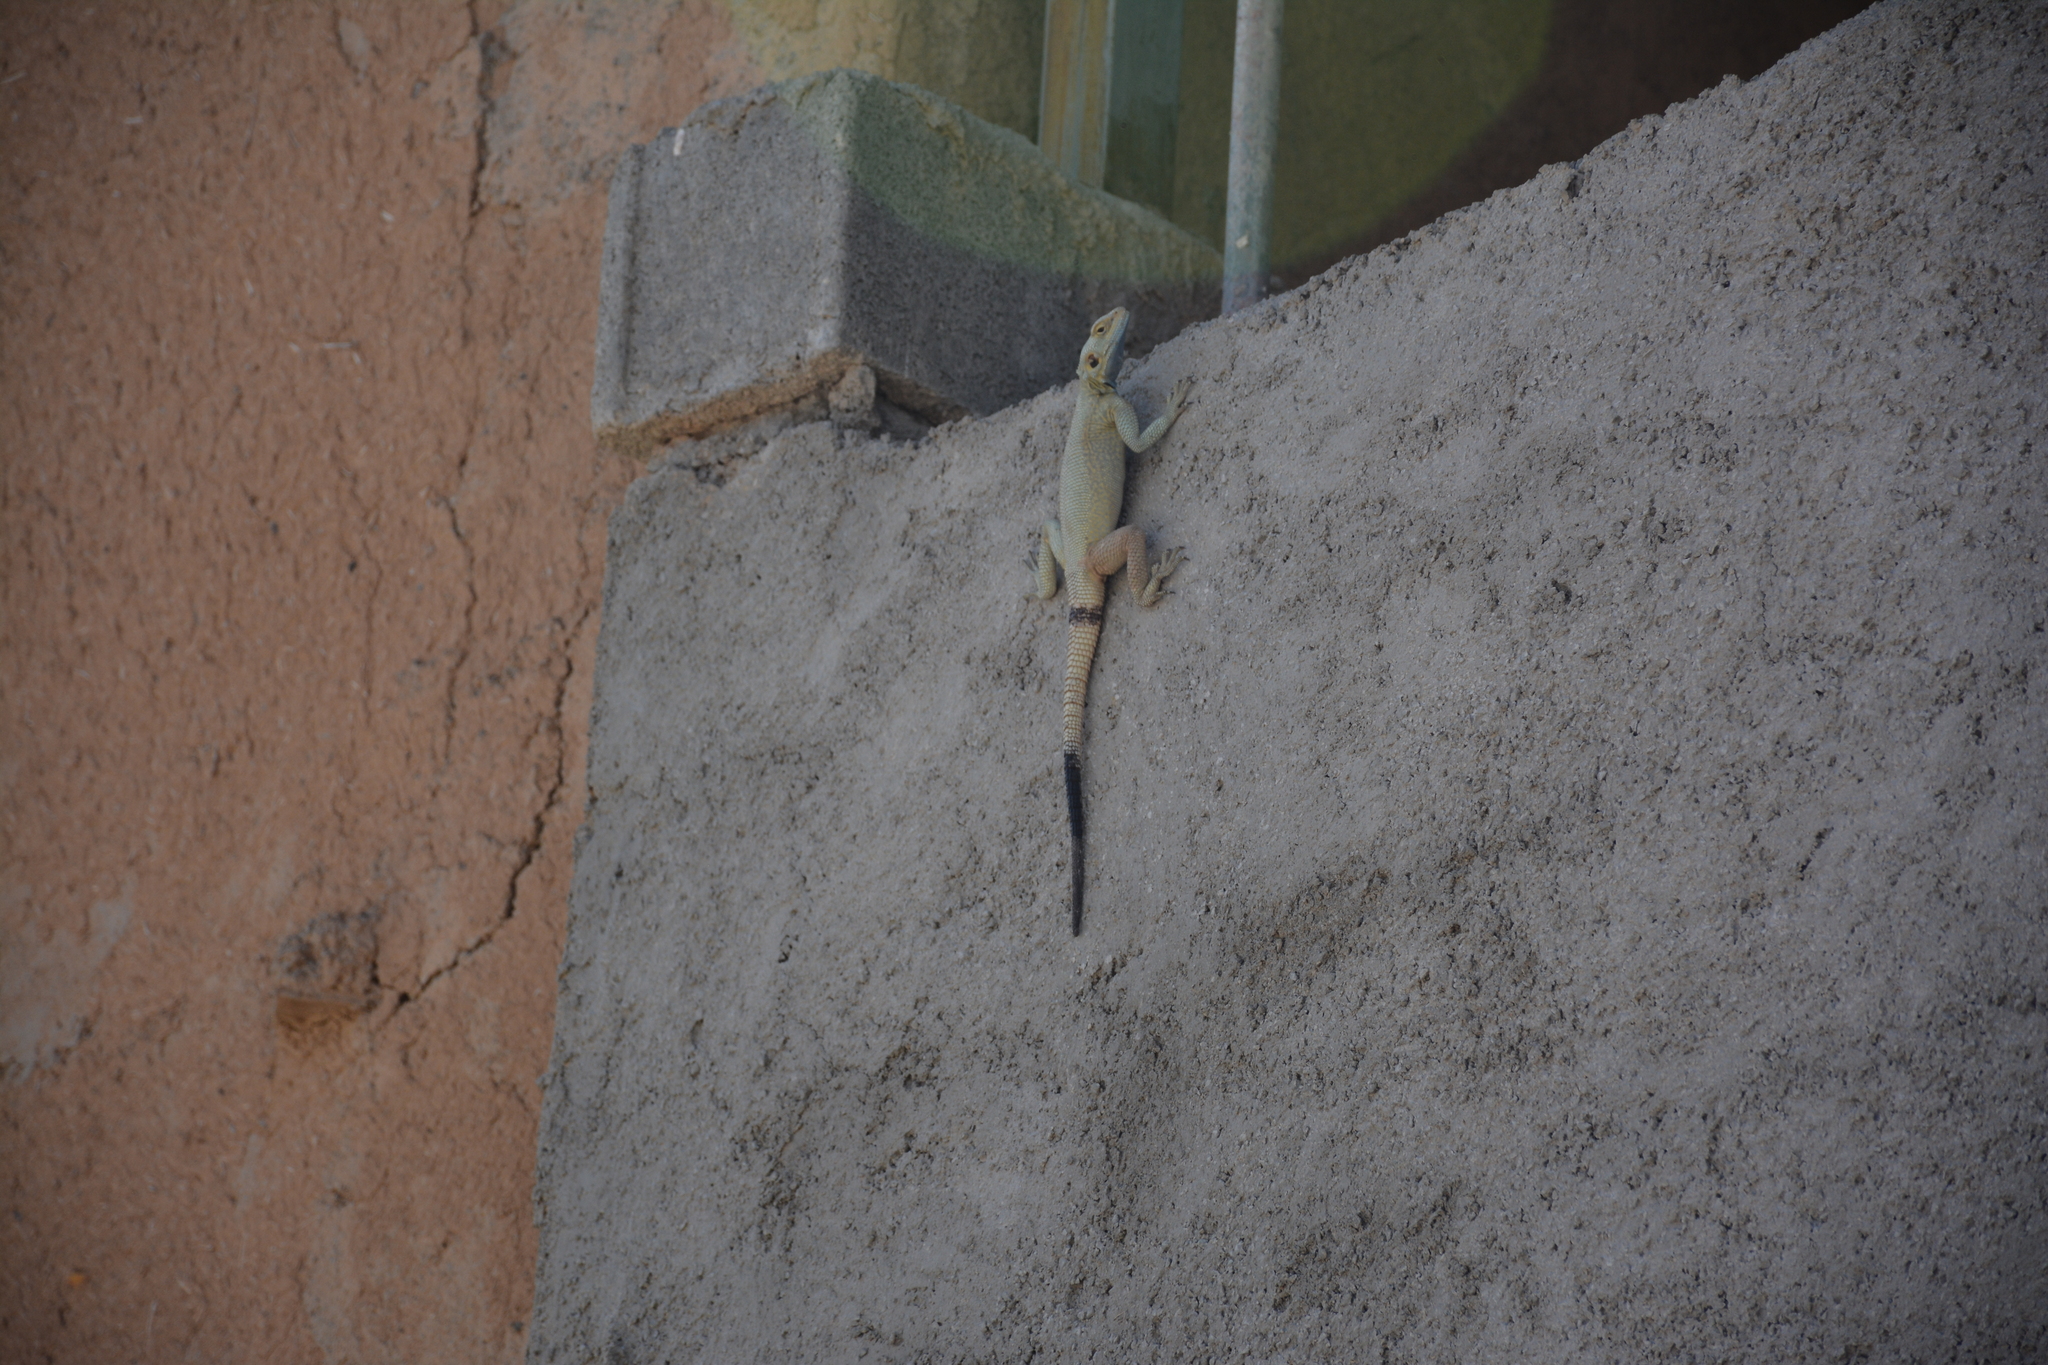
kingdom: Animalia
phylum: Chordata
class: Squamata
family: Agamidae
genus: Laudakia
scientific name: Laudakia nupta
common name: Large-headed rock agama
